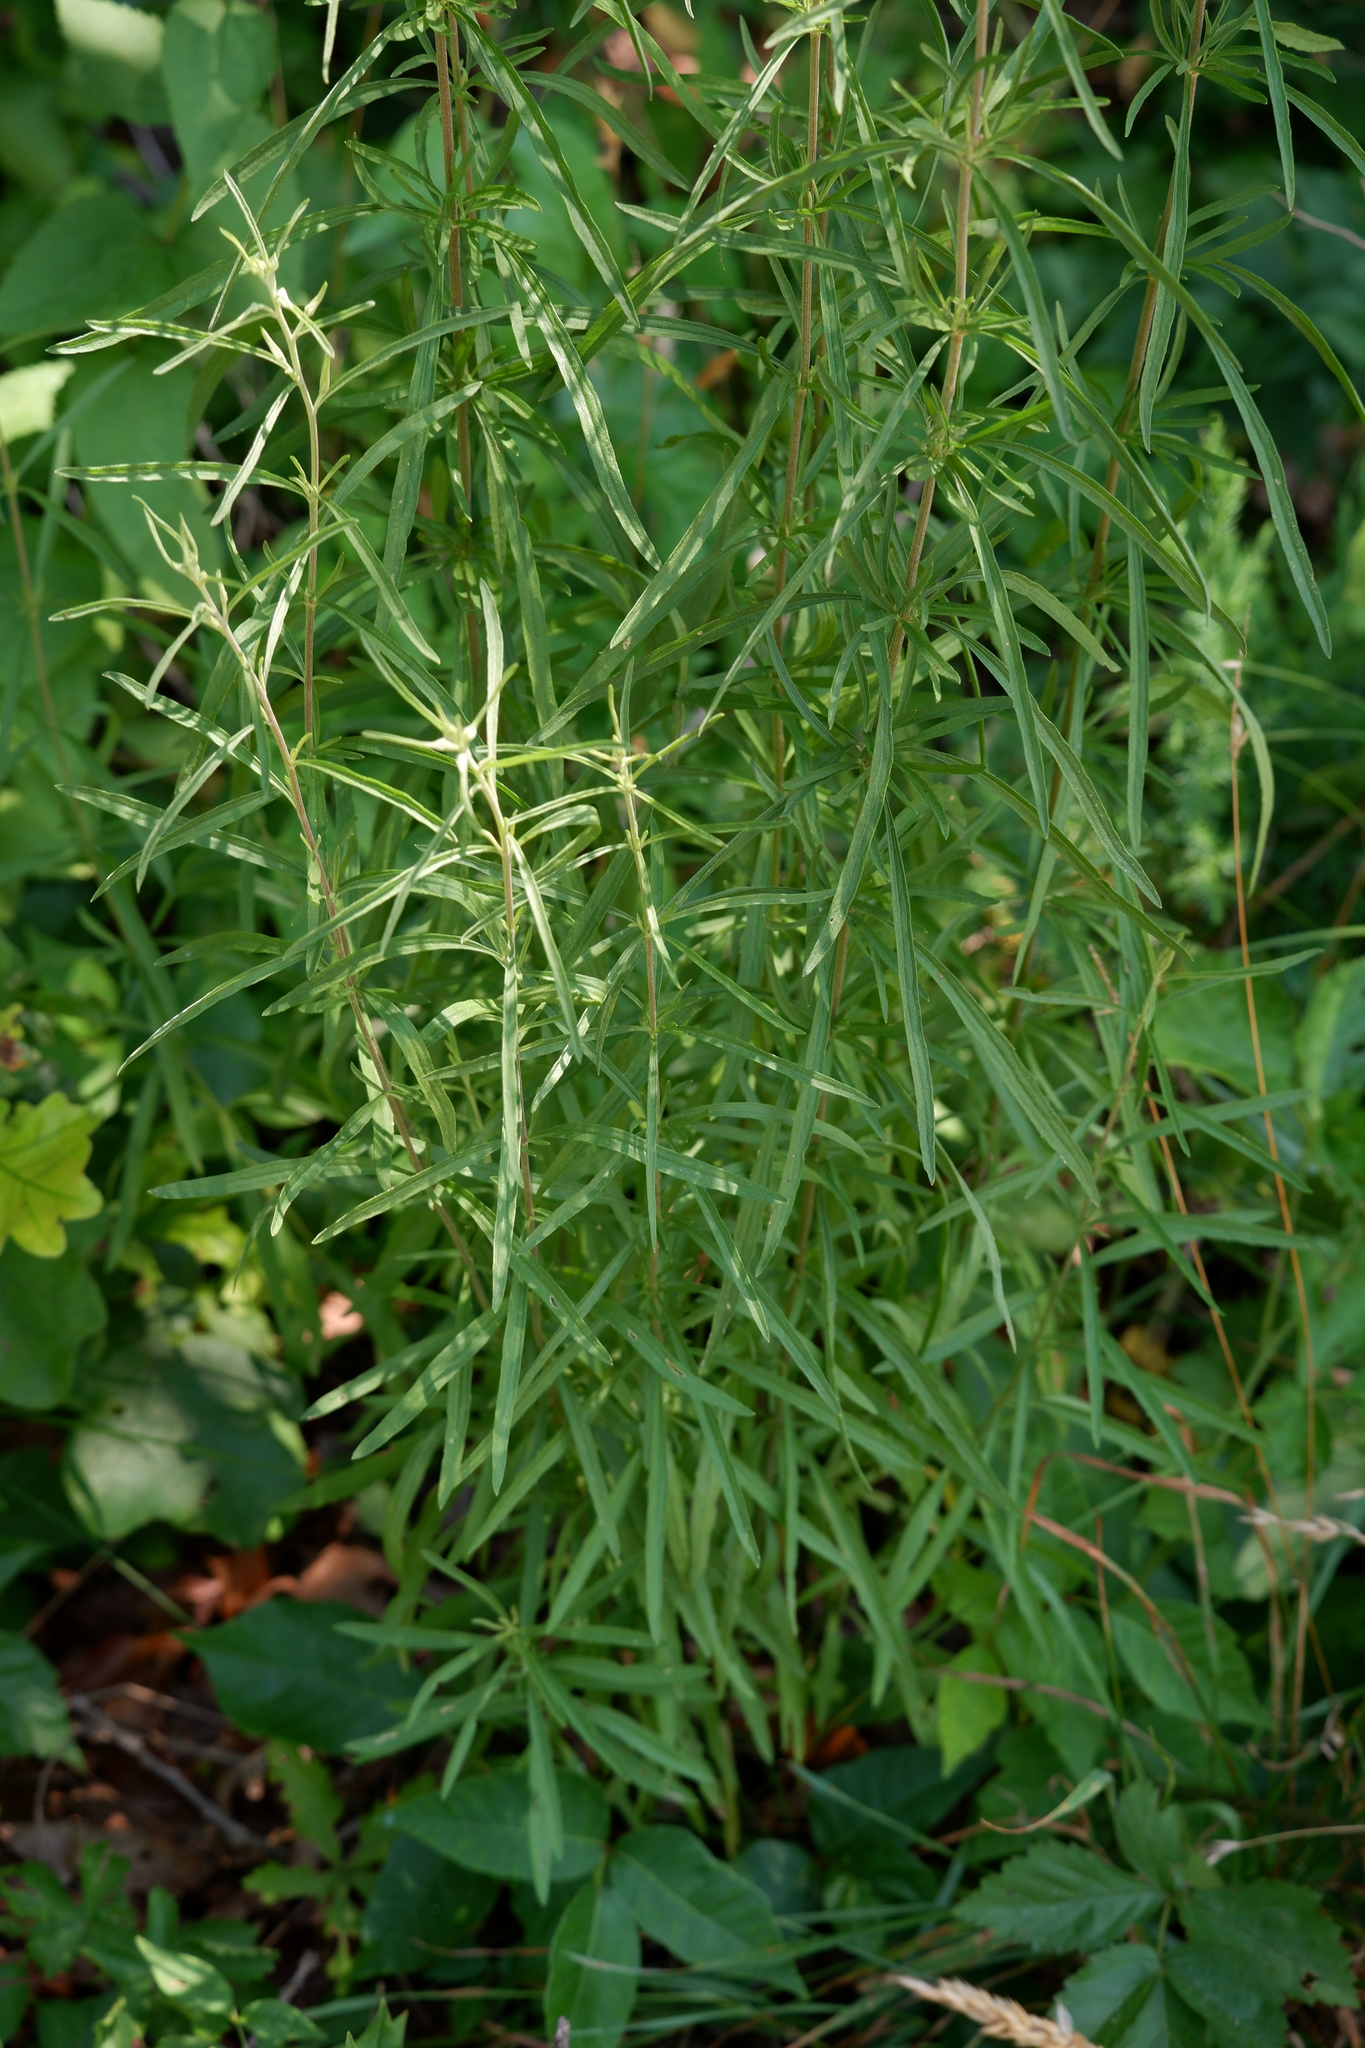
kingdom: Plantae
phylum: Tracheophyta
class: Magnoliopsida
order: Asterales
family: Asteraceae
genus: Eupatorium
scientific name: Eupatorium torreyanum
